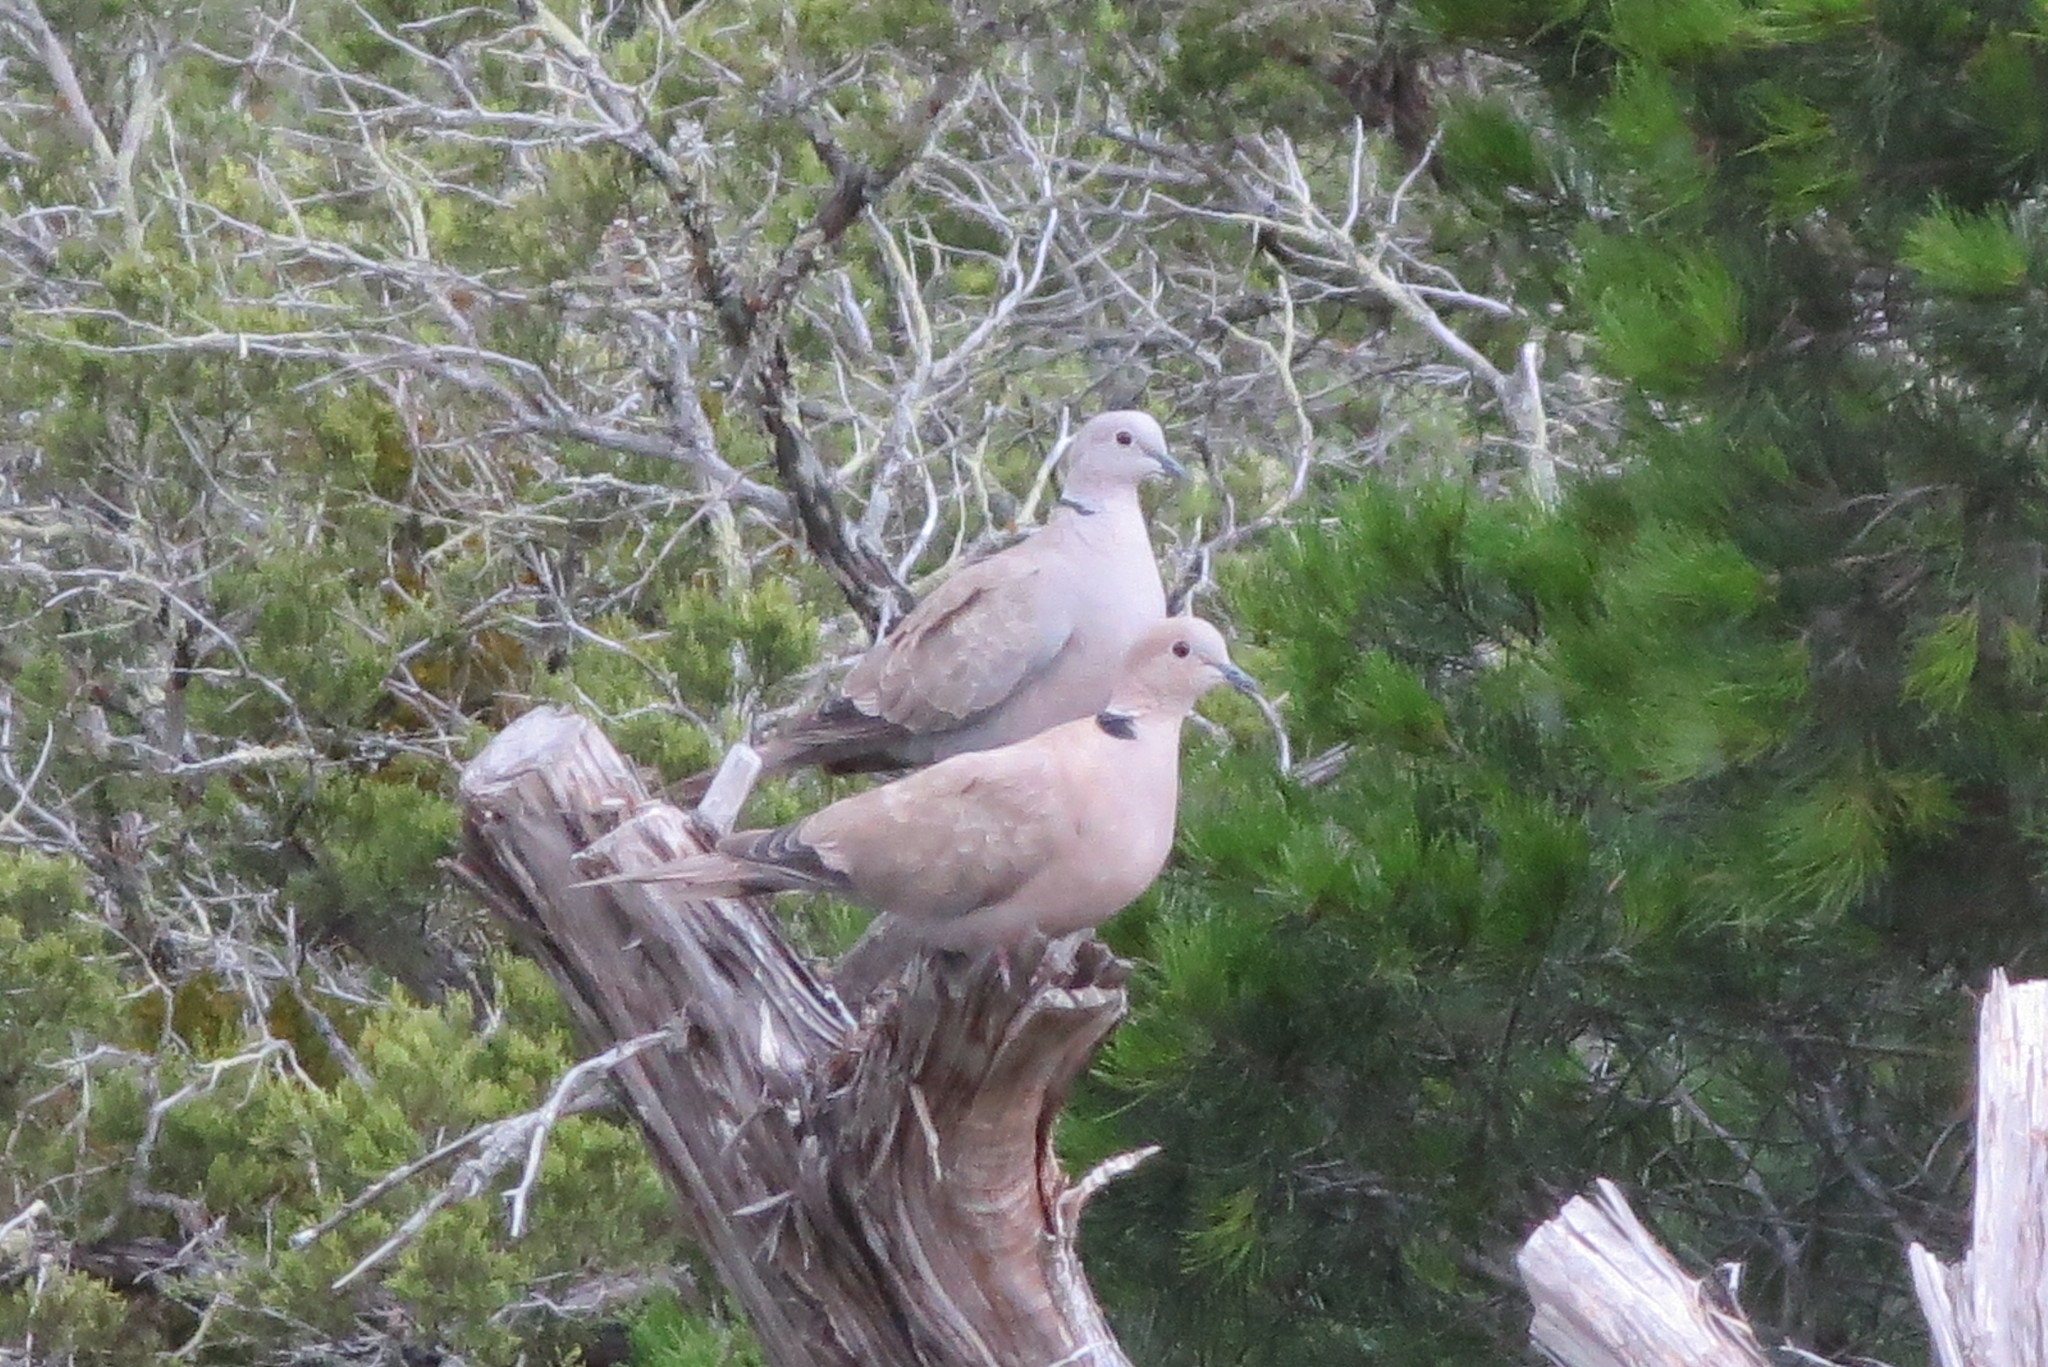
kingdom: Animalia
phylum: Chordata
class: Aves
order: Columbiformes
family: Columbidae
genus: Streptopelia
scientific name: Streptopelia decaocto
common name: Eurasian collared dove
